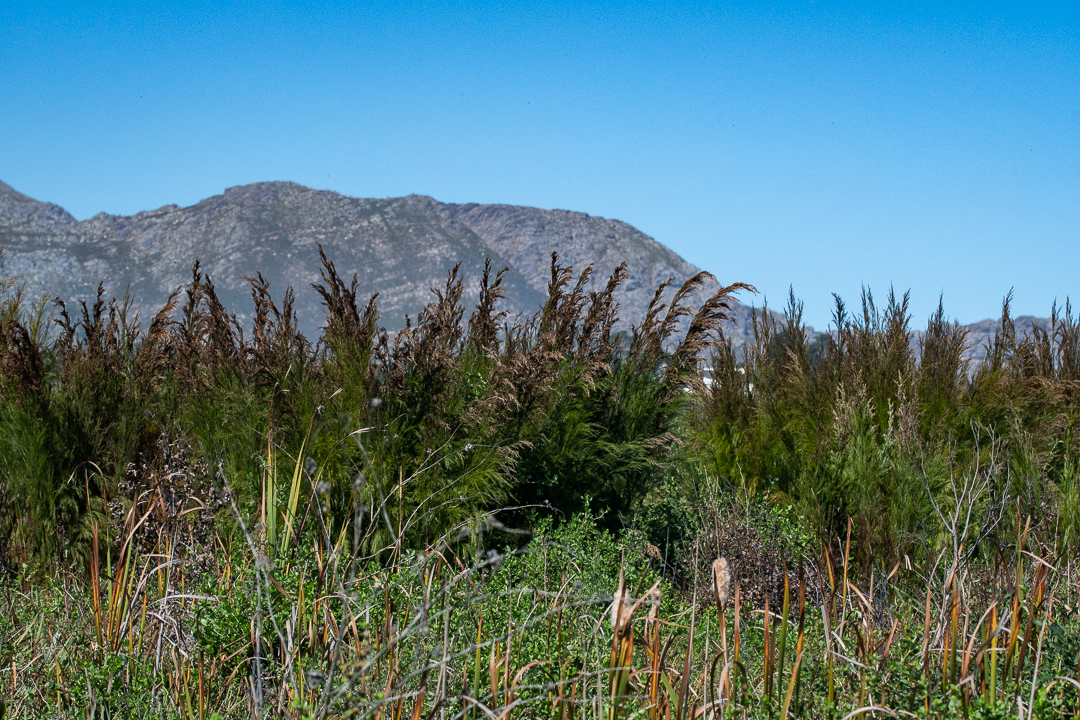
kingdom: Plantae
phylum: Tracheophyta
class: Liliopsida
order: Poales
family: Restionaceae
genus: Restio
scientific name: Restio paniculatus
